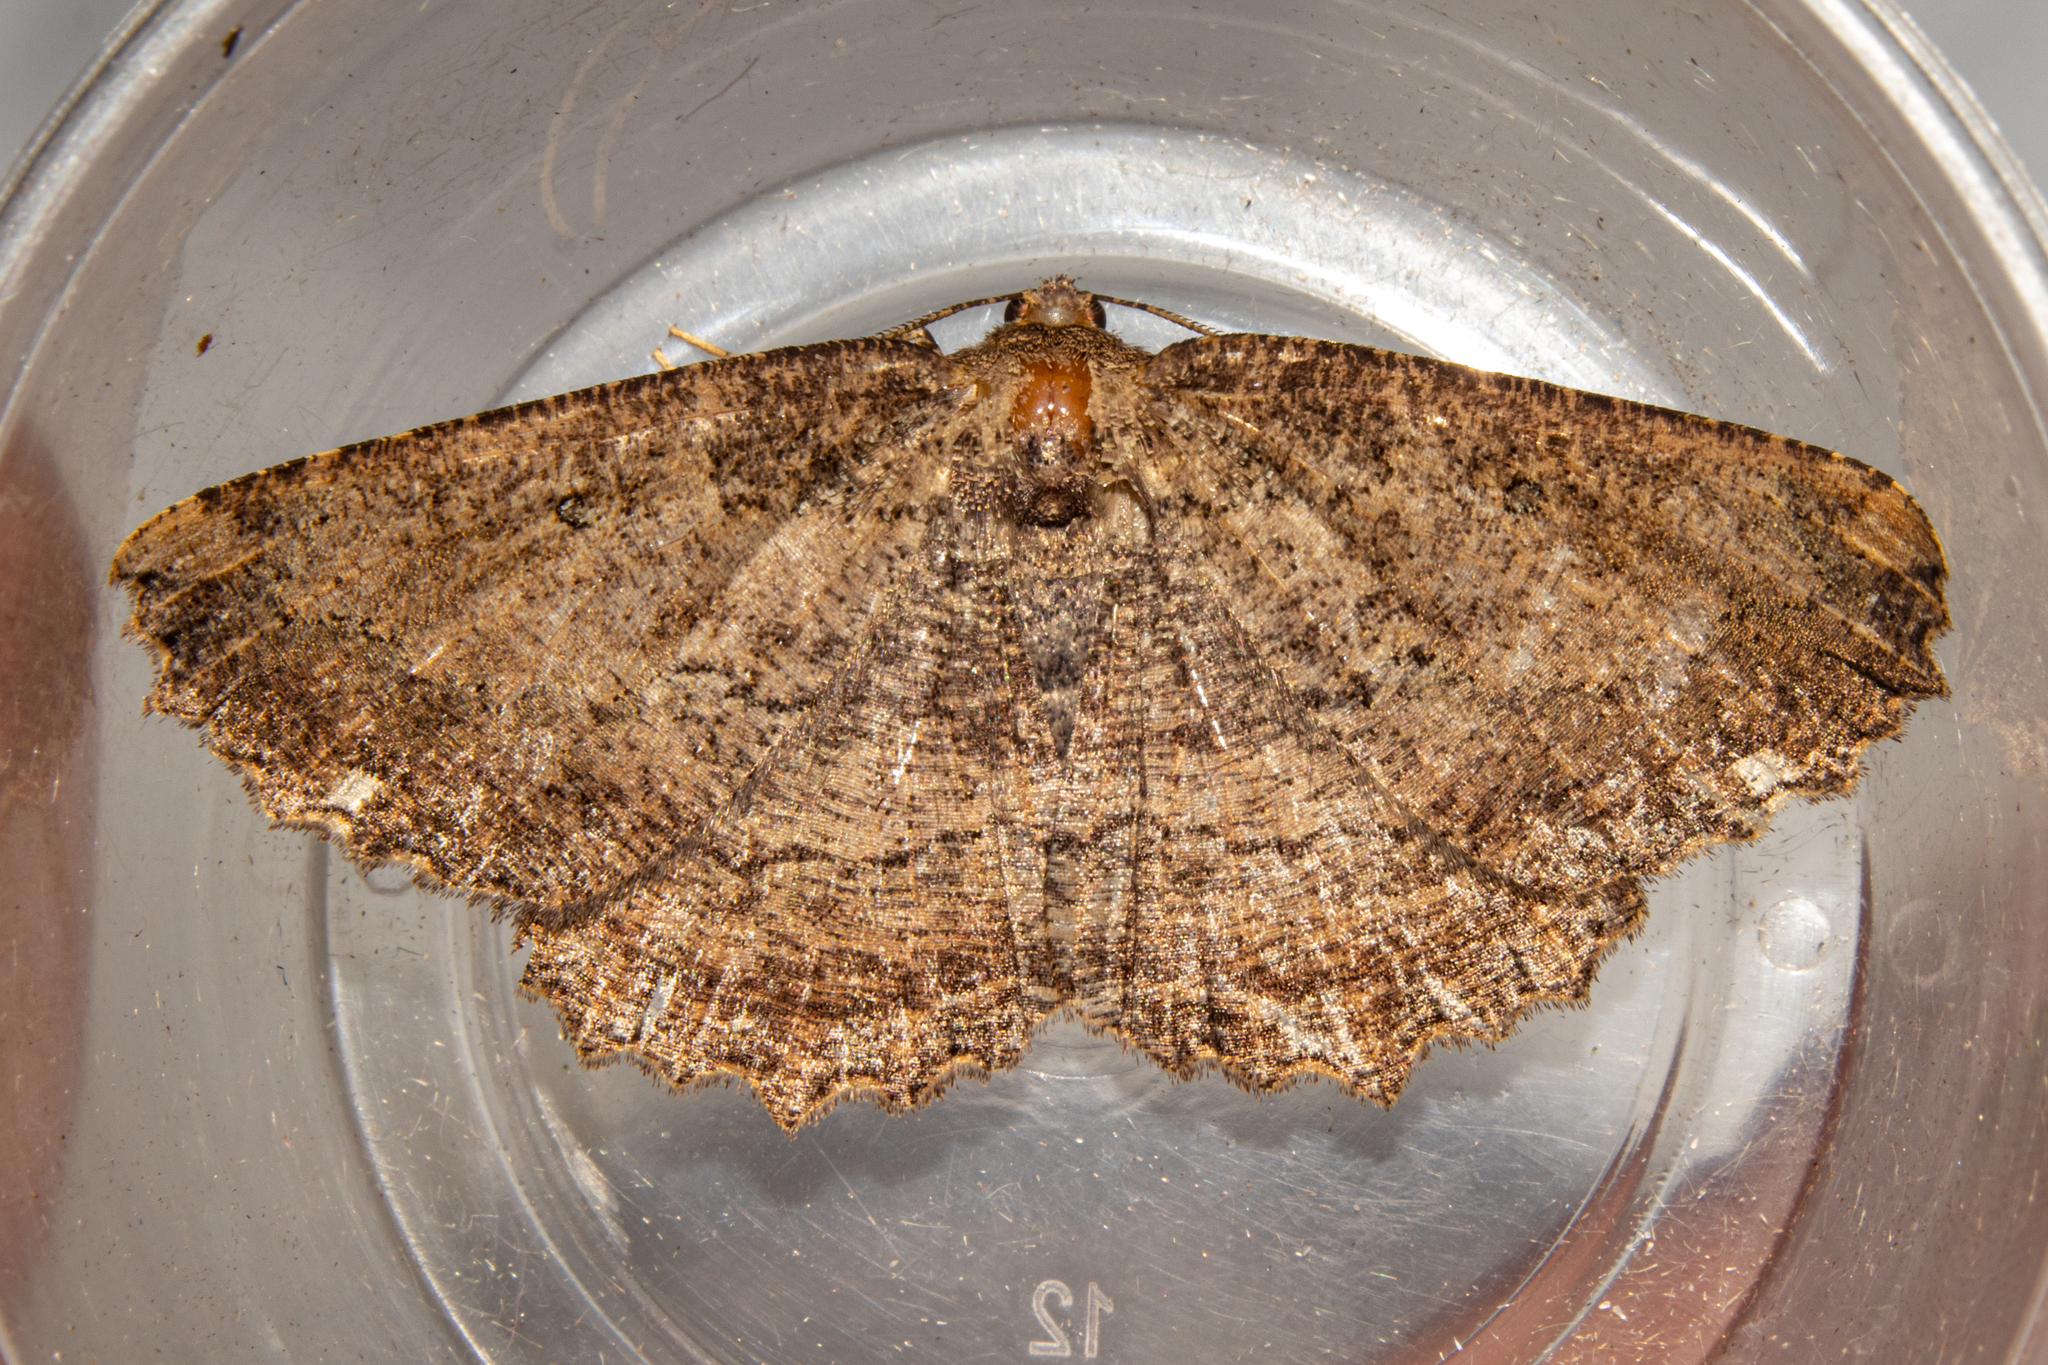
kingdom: Animalia
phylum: Arthropoda
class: Insecta
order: Lepidoptera
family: Geometridae
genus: Gellonia
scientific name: Gellonia dejectaria
